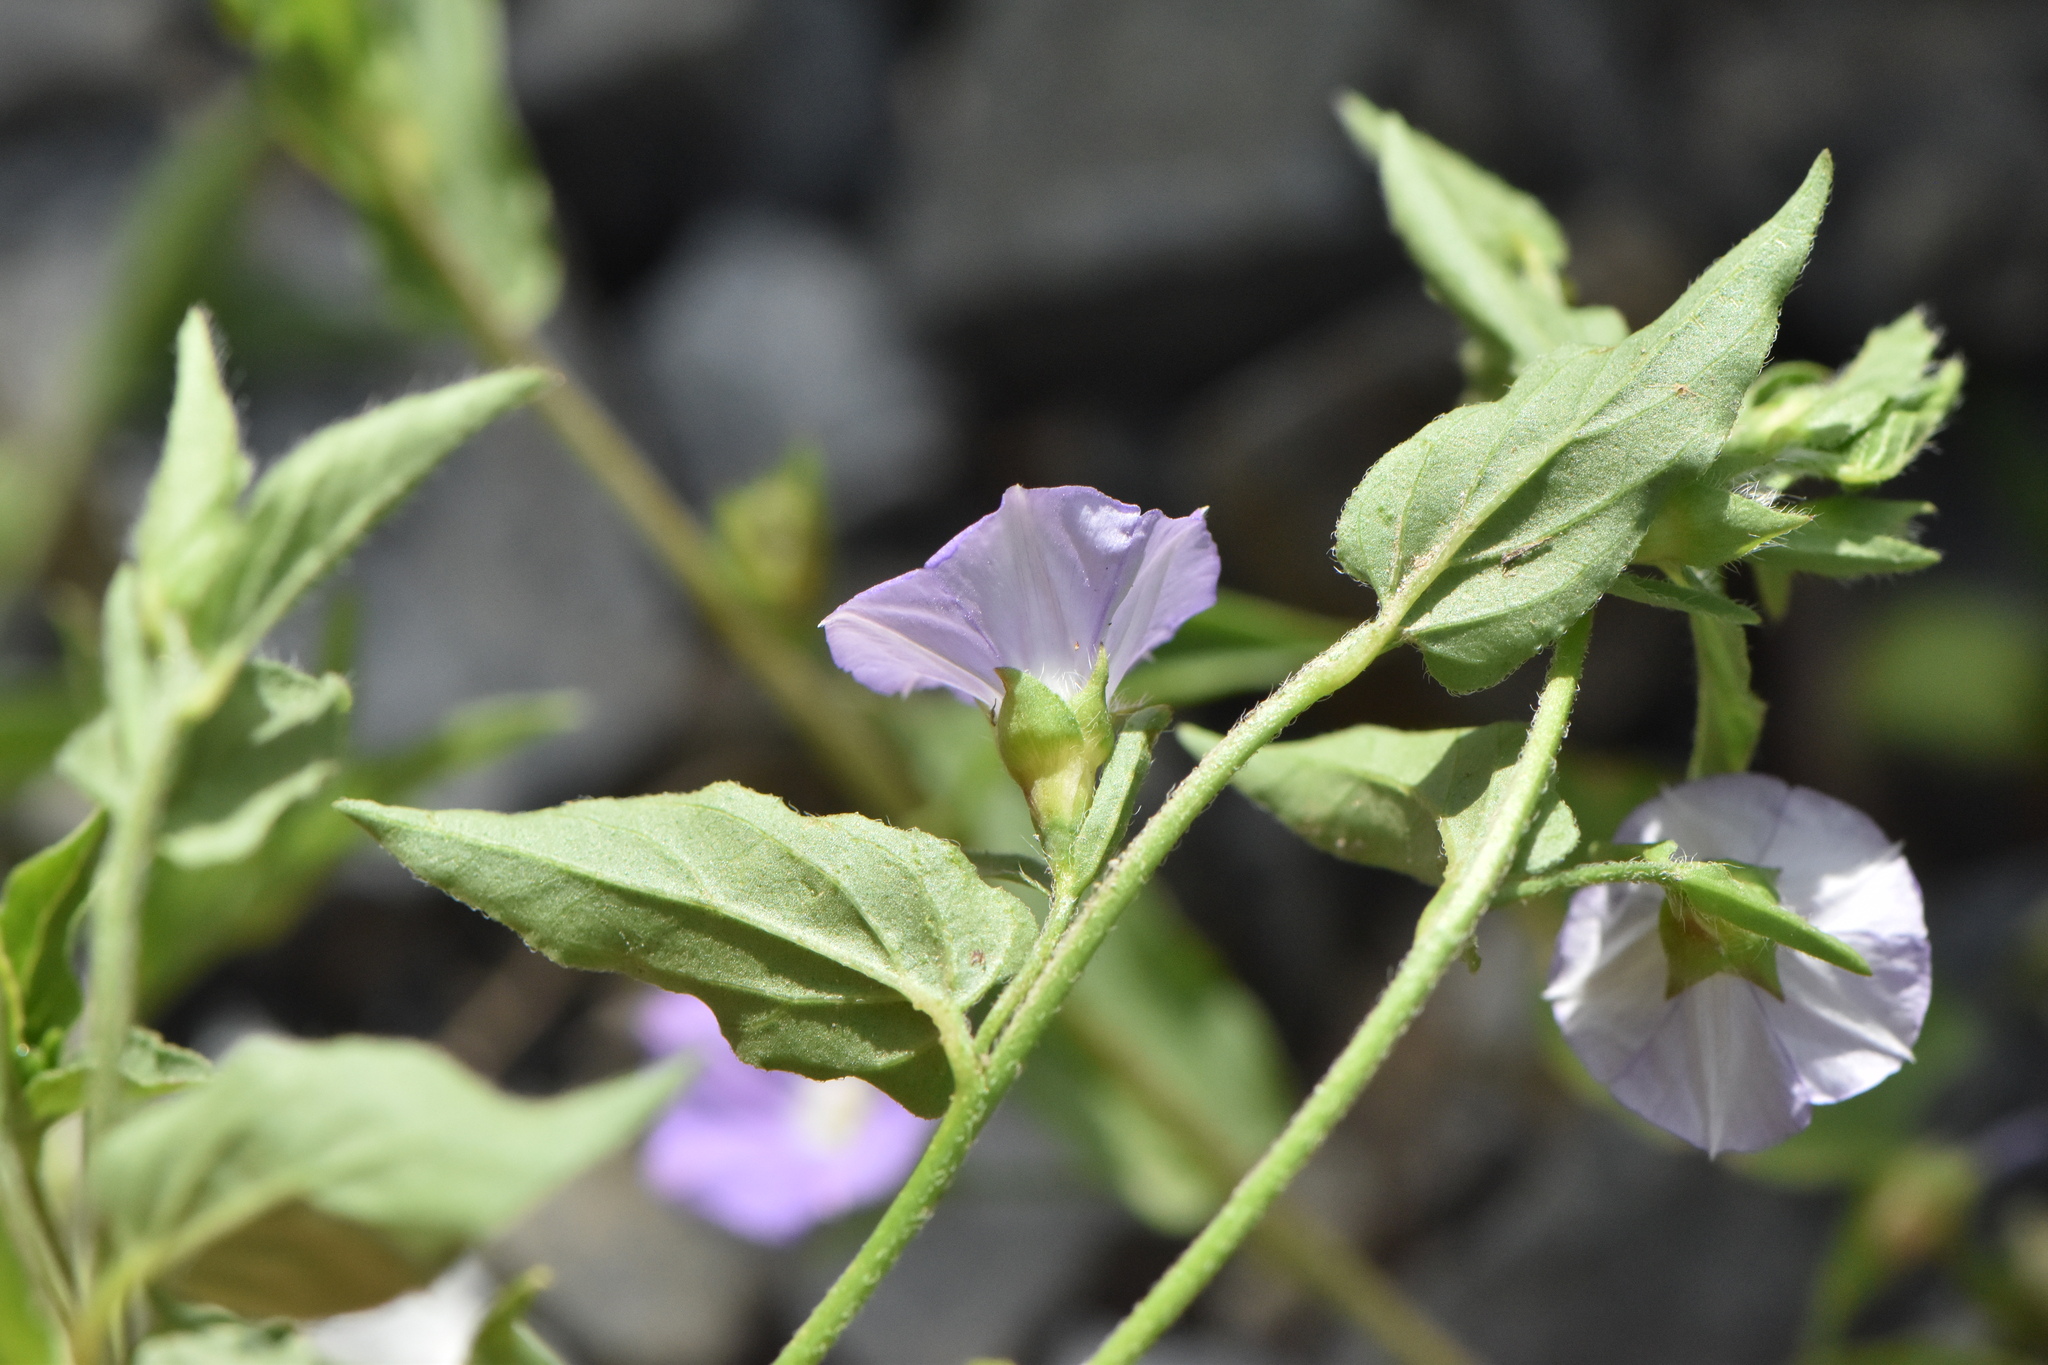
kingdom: Plantae
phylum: Tracheophyta
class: Magnoliopsida
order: Solanales
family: Convolvulaceae
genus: Convolvulus
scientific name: Convolvulus siculus
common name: Small blue-convolvulus
